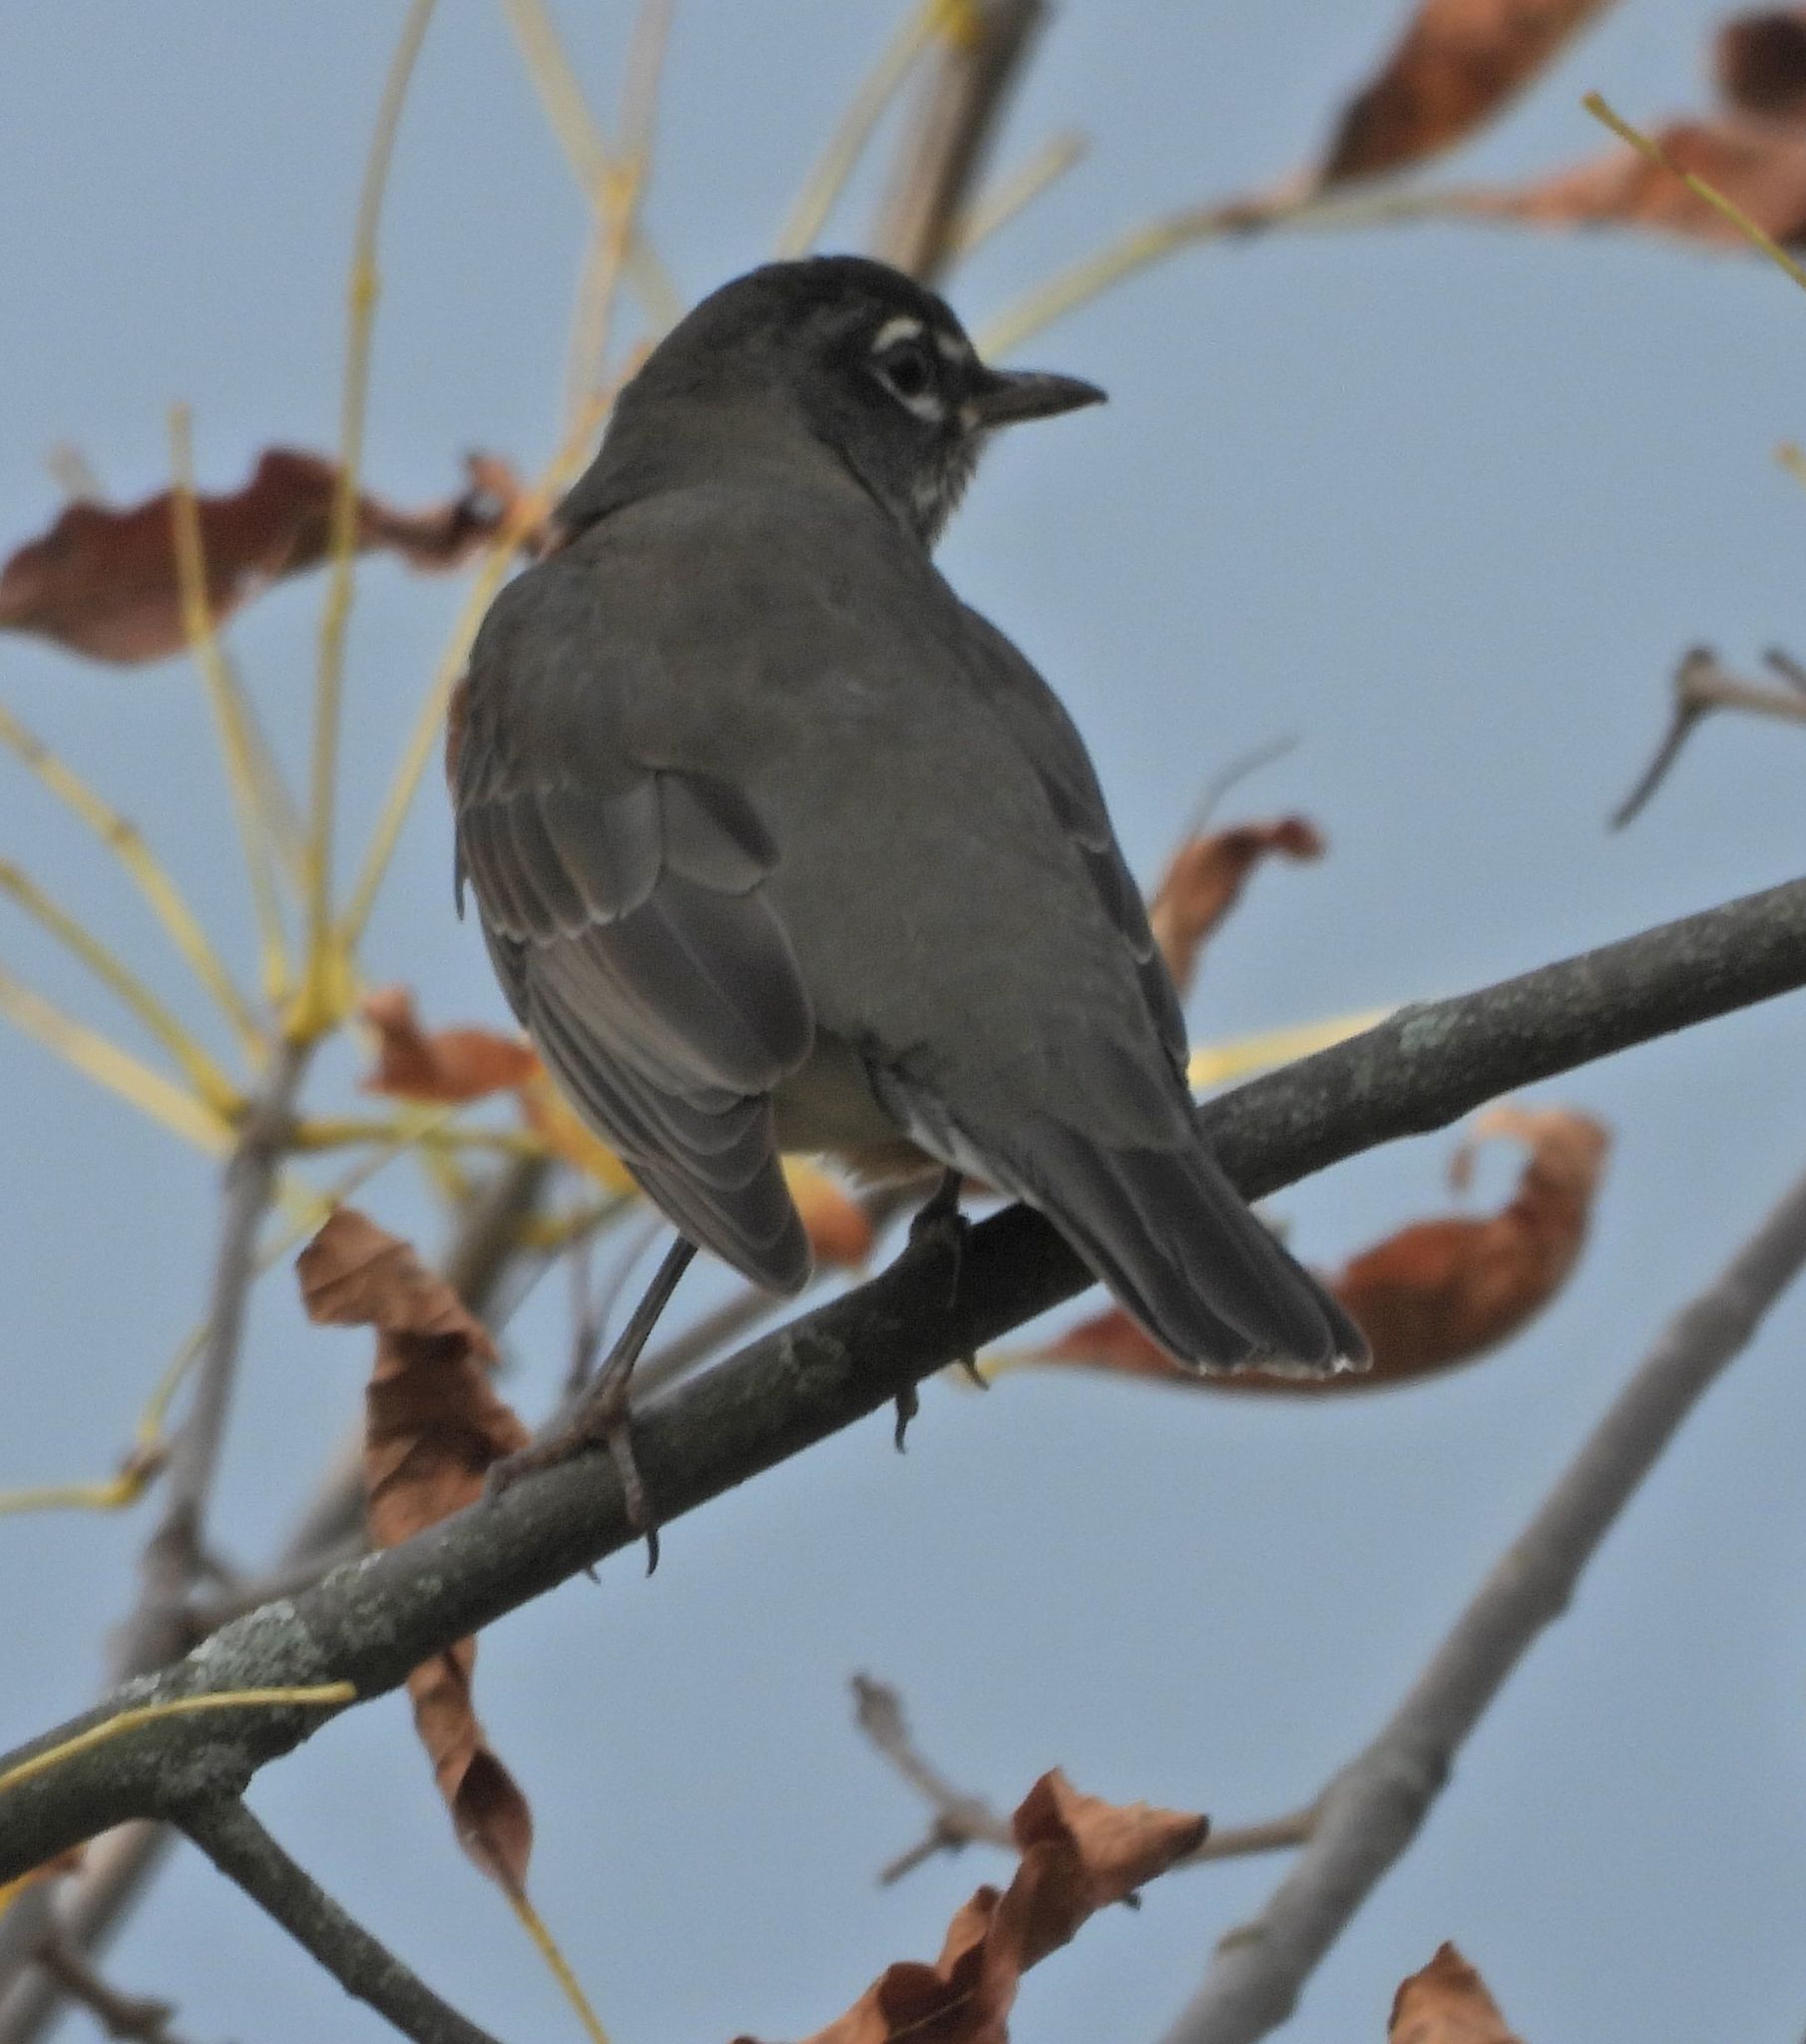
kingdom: Animalia
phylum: Chordata
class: Aves
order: Passeriformes
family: Turdidae
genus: Turdus
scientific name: Turdus migratorius
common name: American robin
